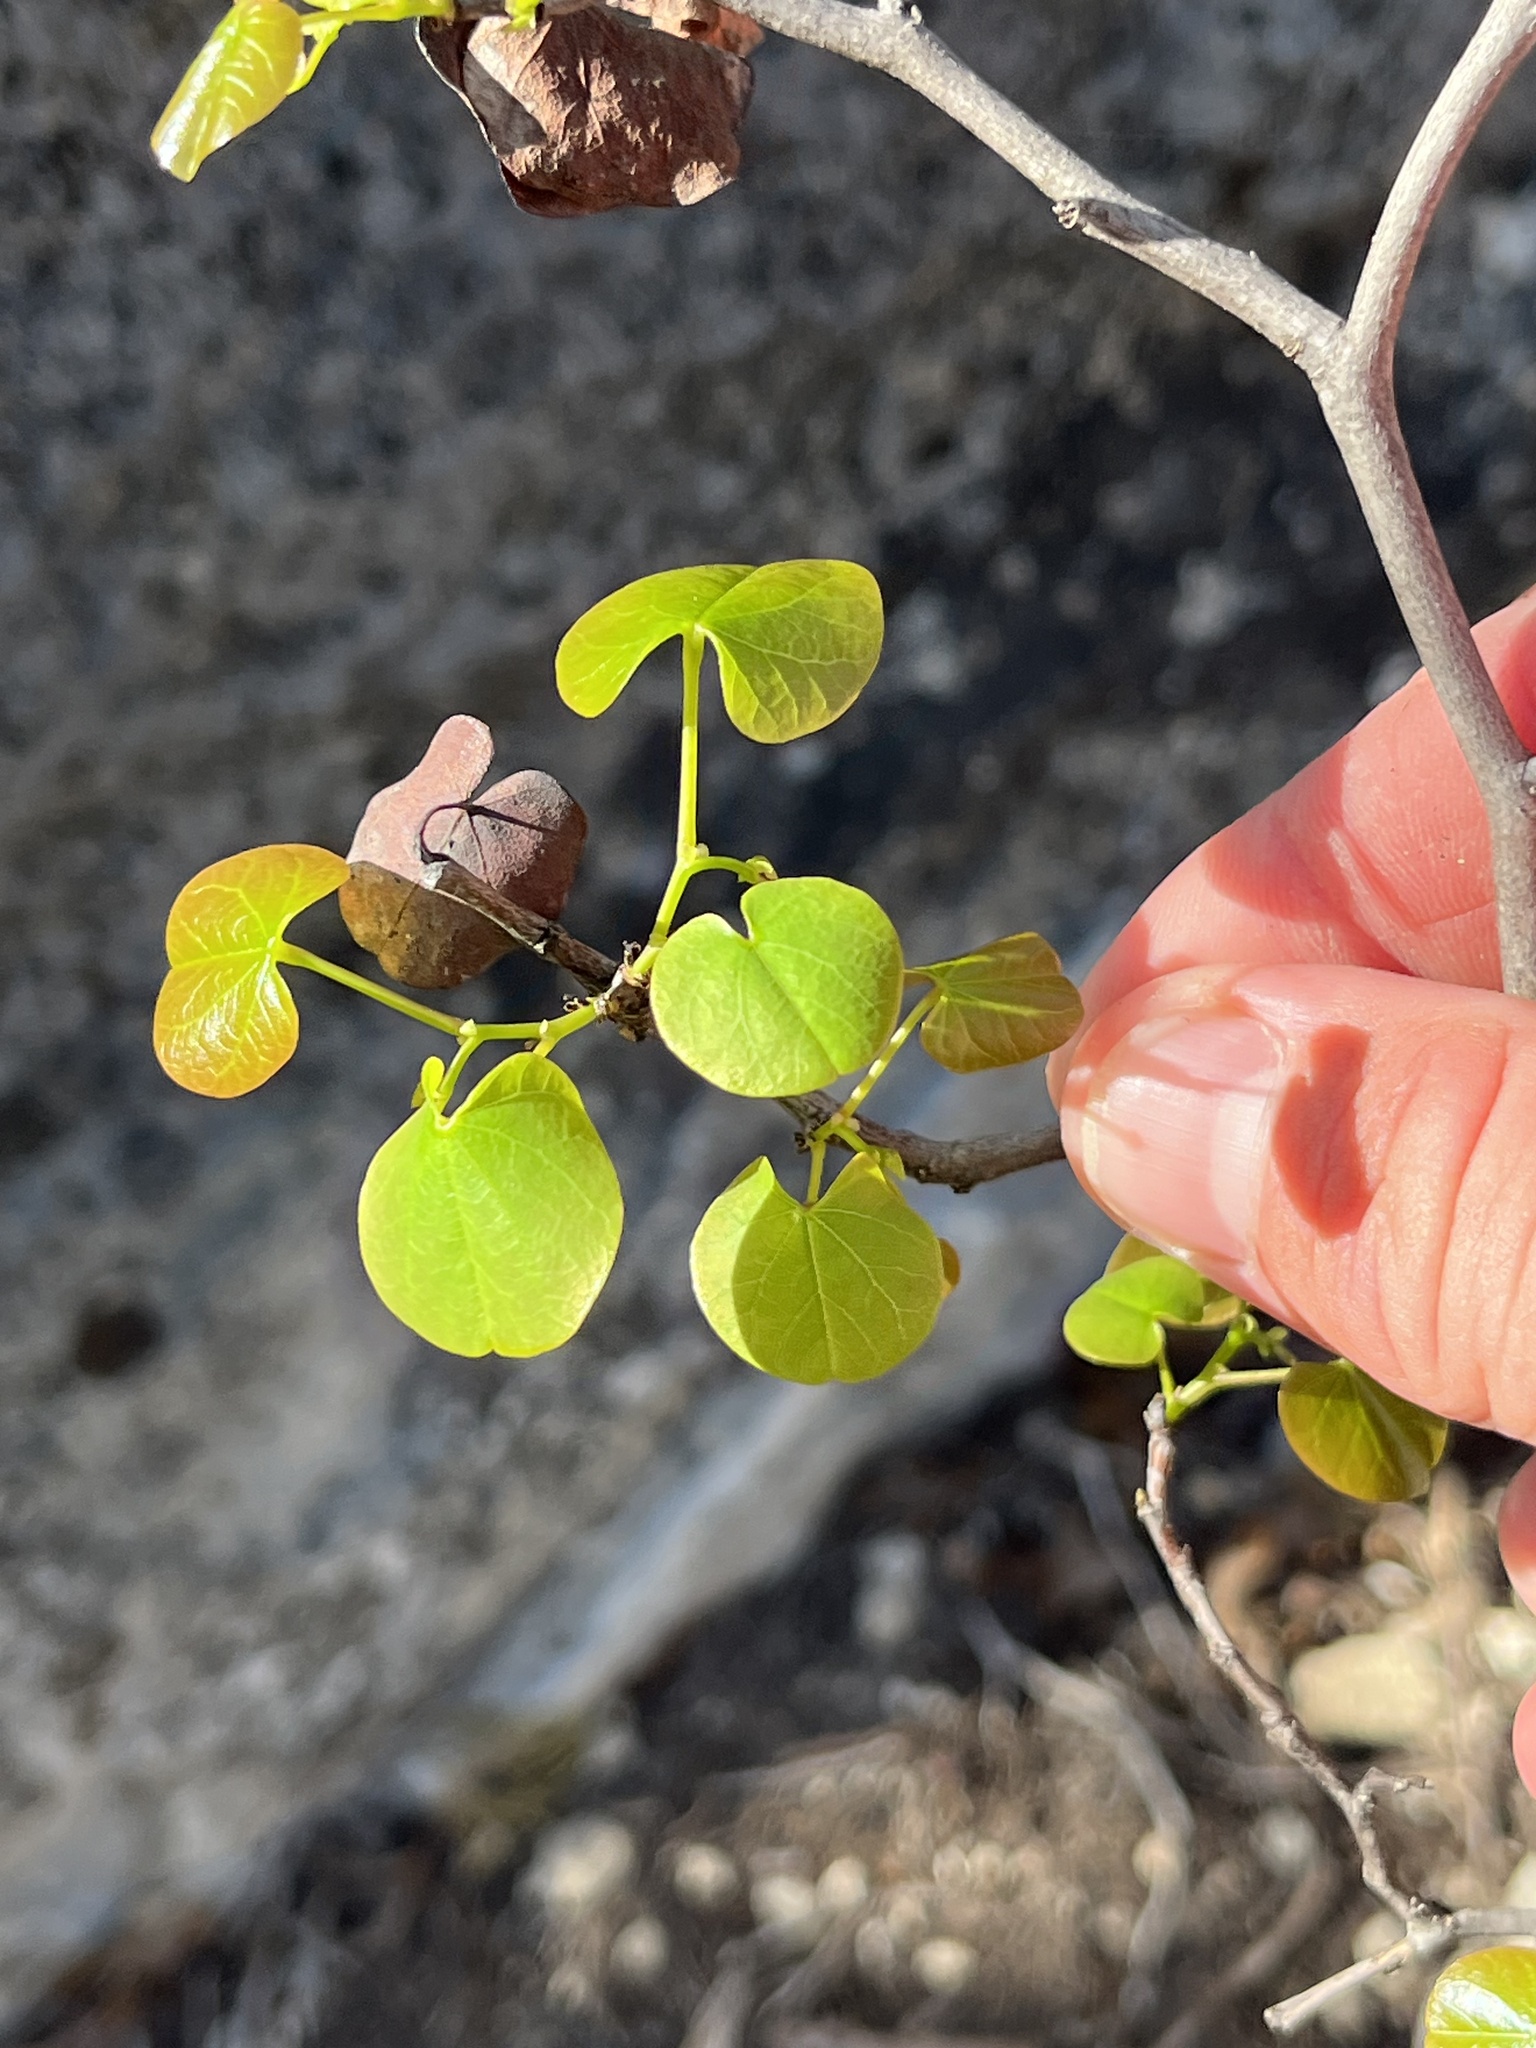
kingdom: Plantae
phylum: Tracheophyta
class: Magnoliopsida
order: Fabales
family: Fabaceae
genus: Cercis
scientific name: Cercis canadensis
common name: Eastern redbud
